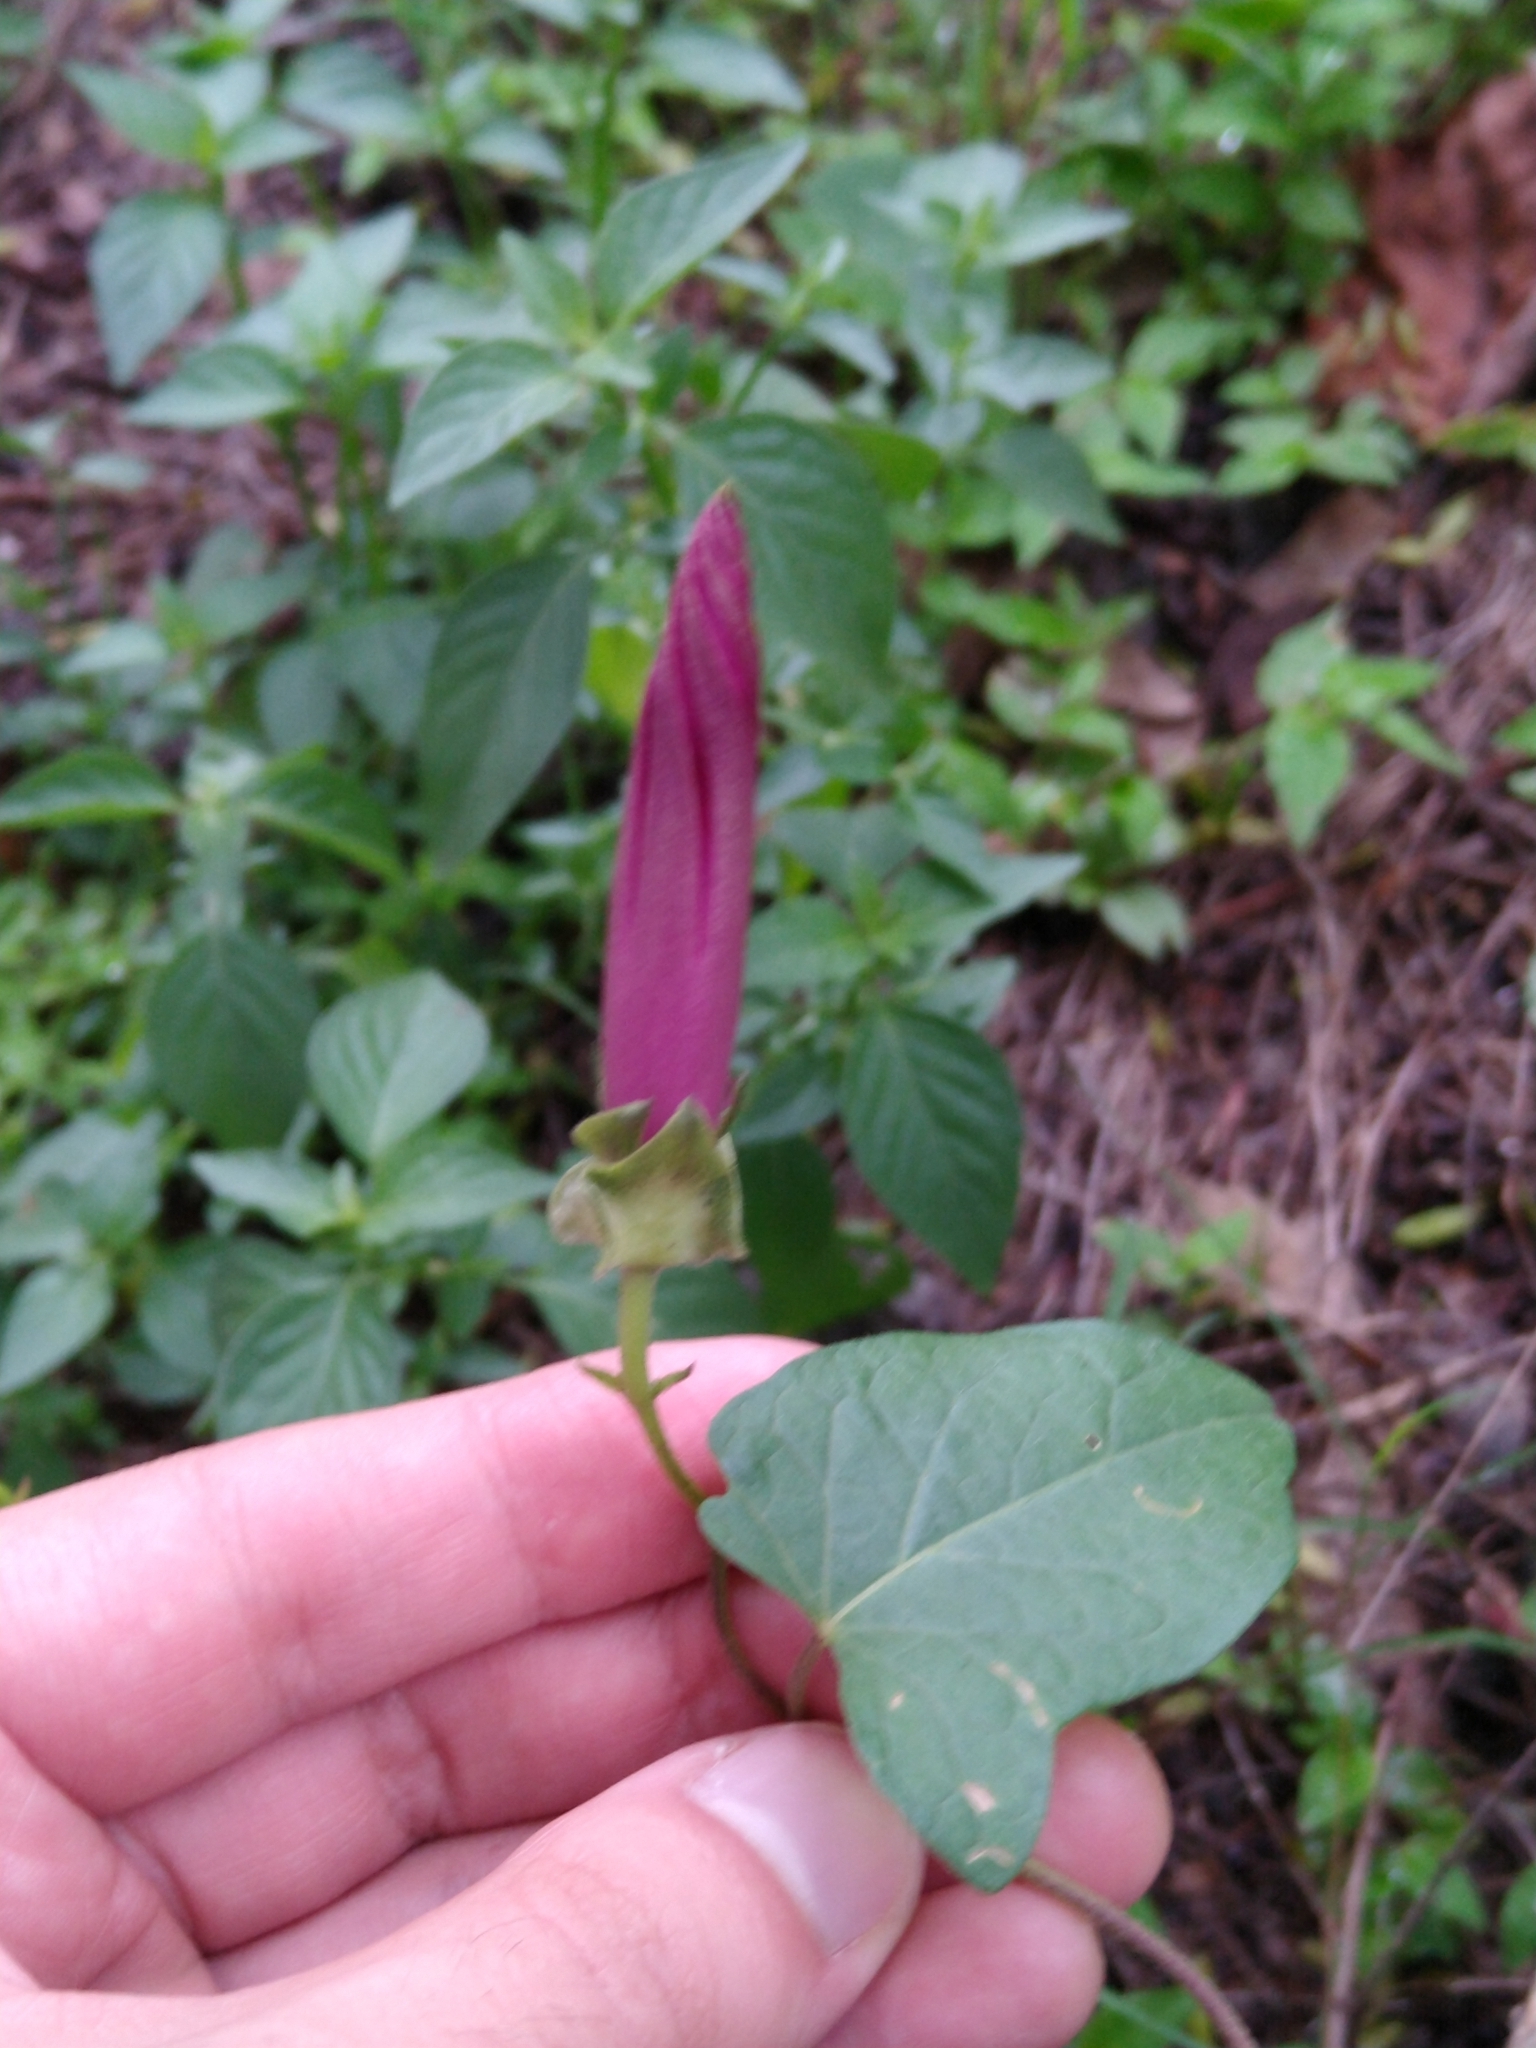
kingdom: Plantae
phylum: Tracheophyta
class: Magnoliopsida
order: Solanales
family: Convolvulaceae
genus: Ipomoea
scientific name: Ipomoea decasperma
